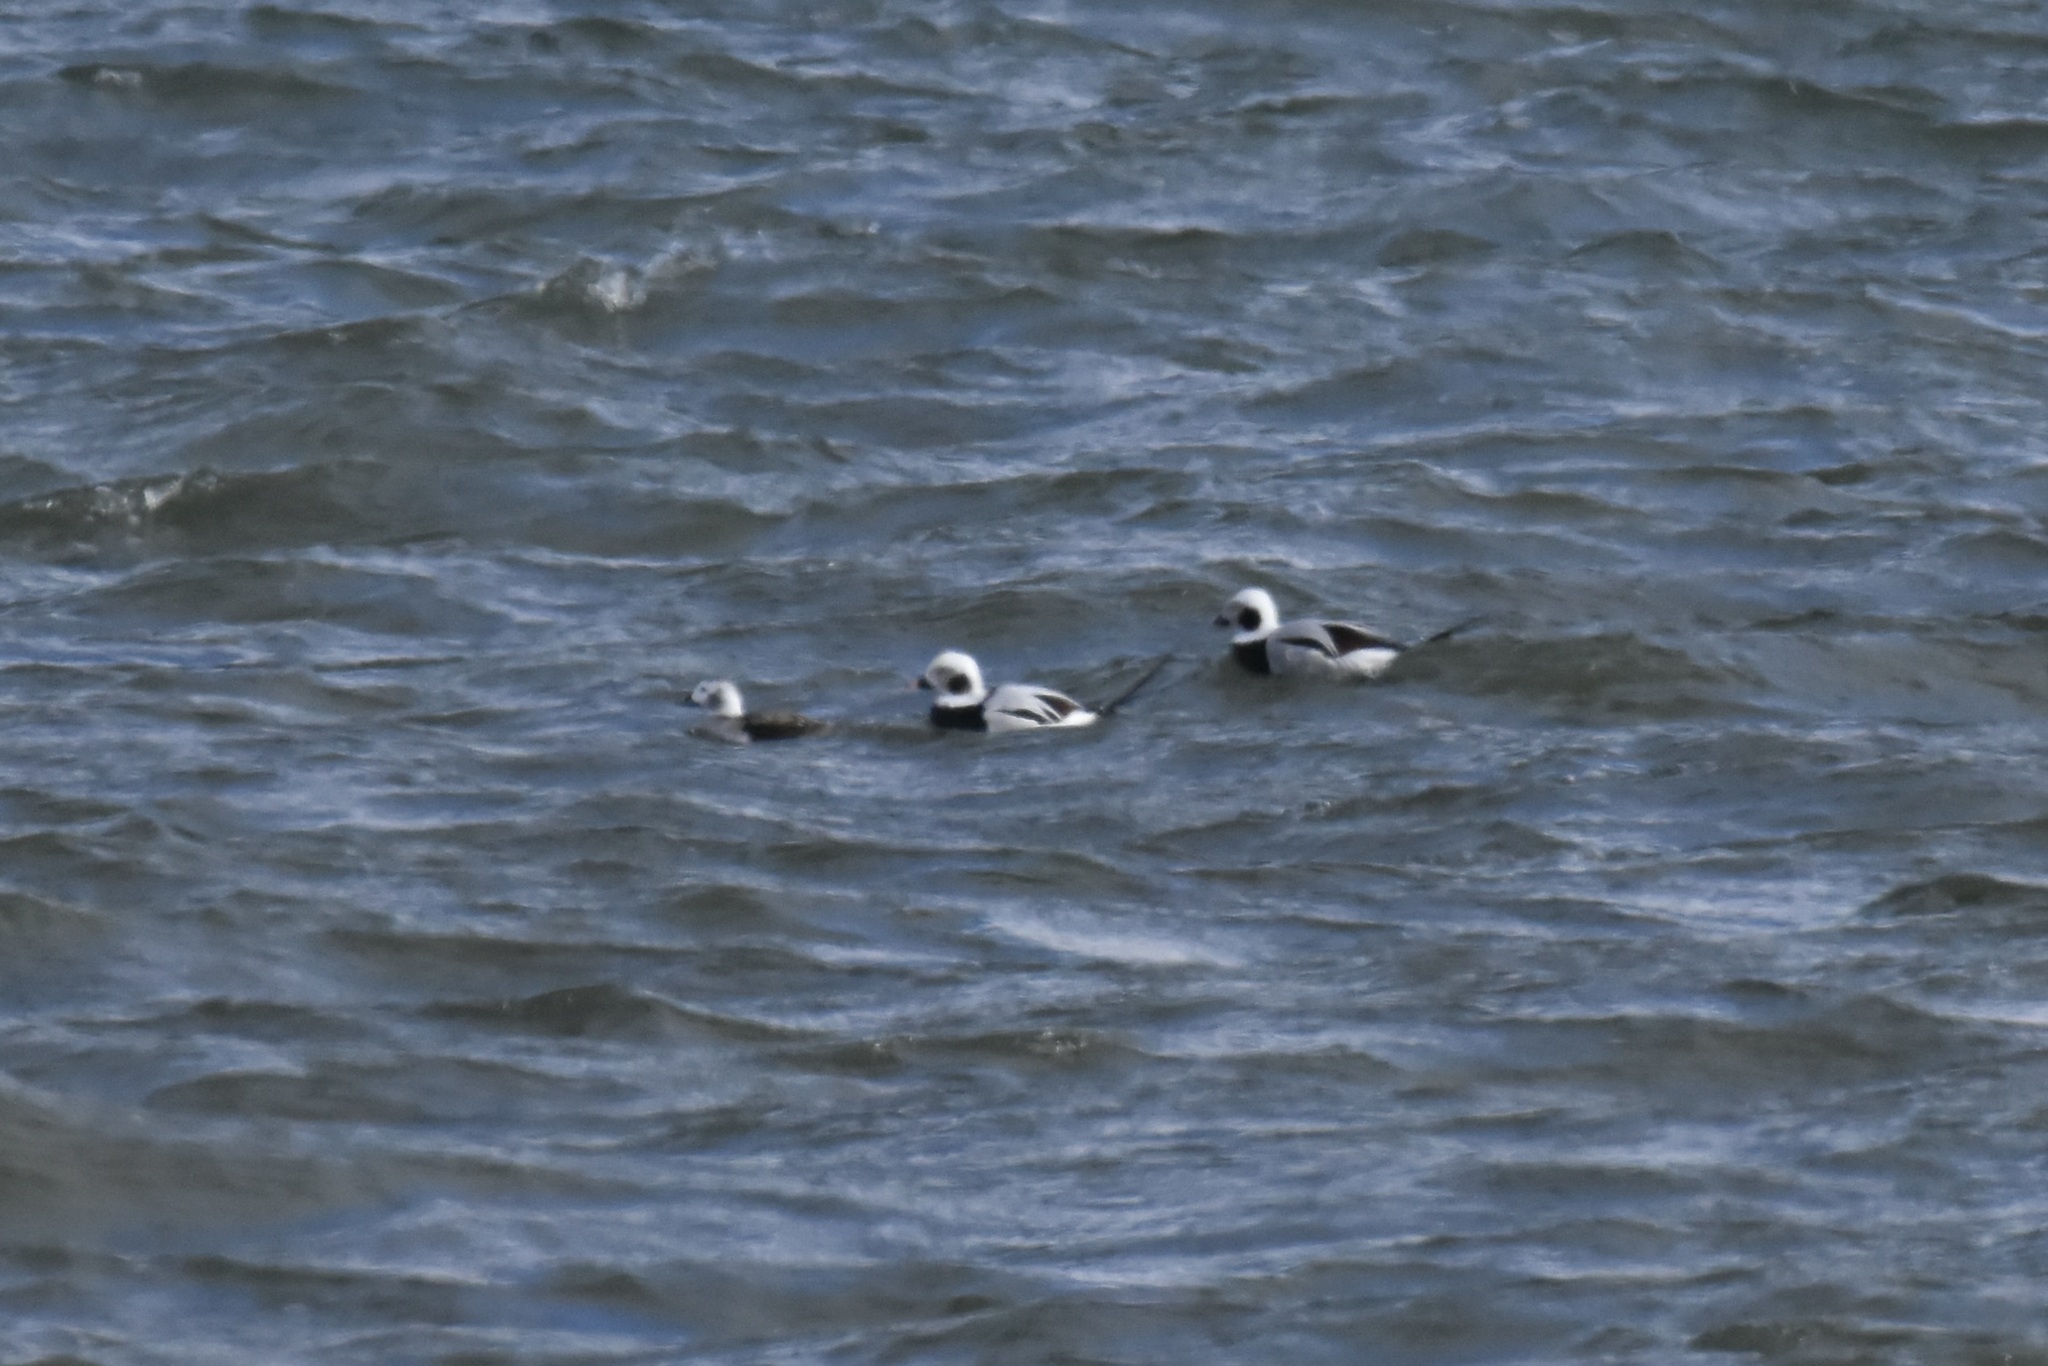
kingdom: Animalia
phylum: Chordata
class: Aves
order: Anseriformes
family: Anatidae
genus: Clangula
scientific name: Clangula hyemalis
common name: Long-tailed duck
